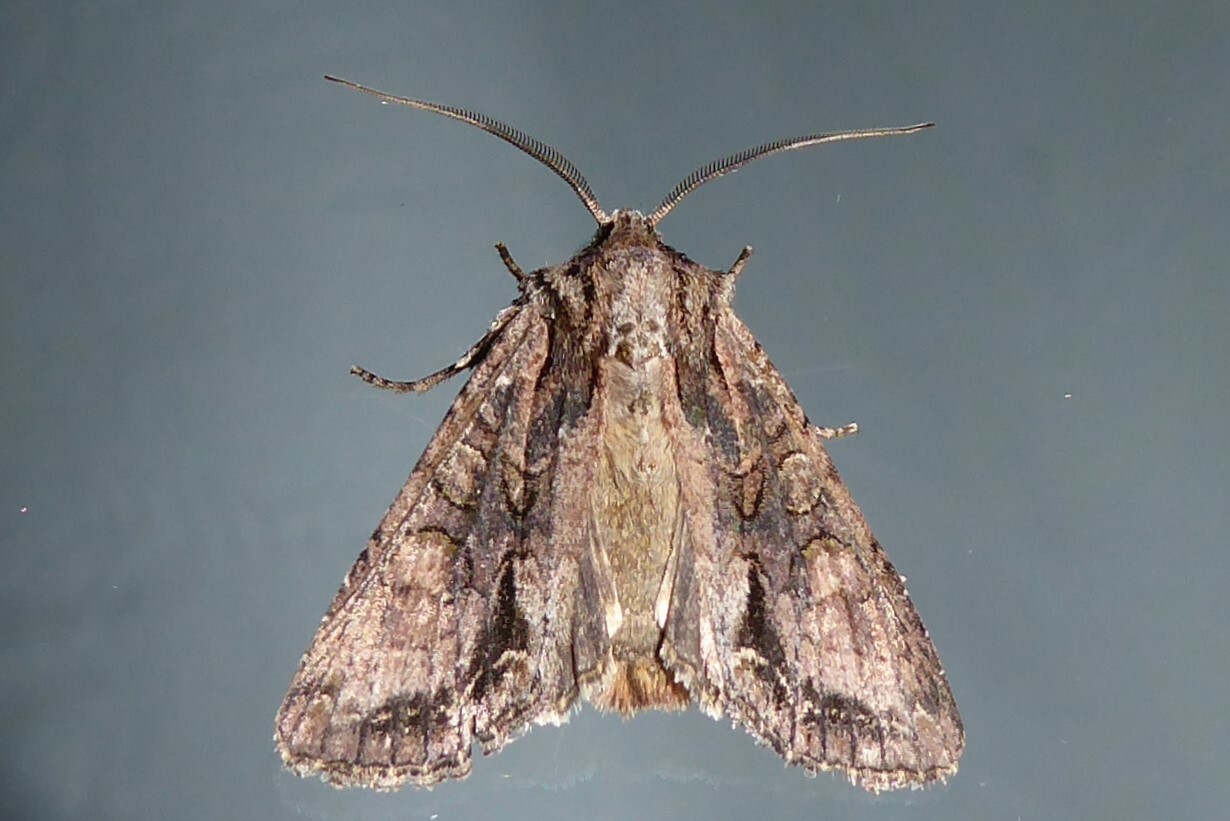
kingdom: Animalia
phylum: Arthropoda
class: Insecta
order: Lepidoptera
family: Noctuidae
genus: Ichneutica
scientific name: Ichneutica mutans
